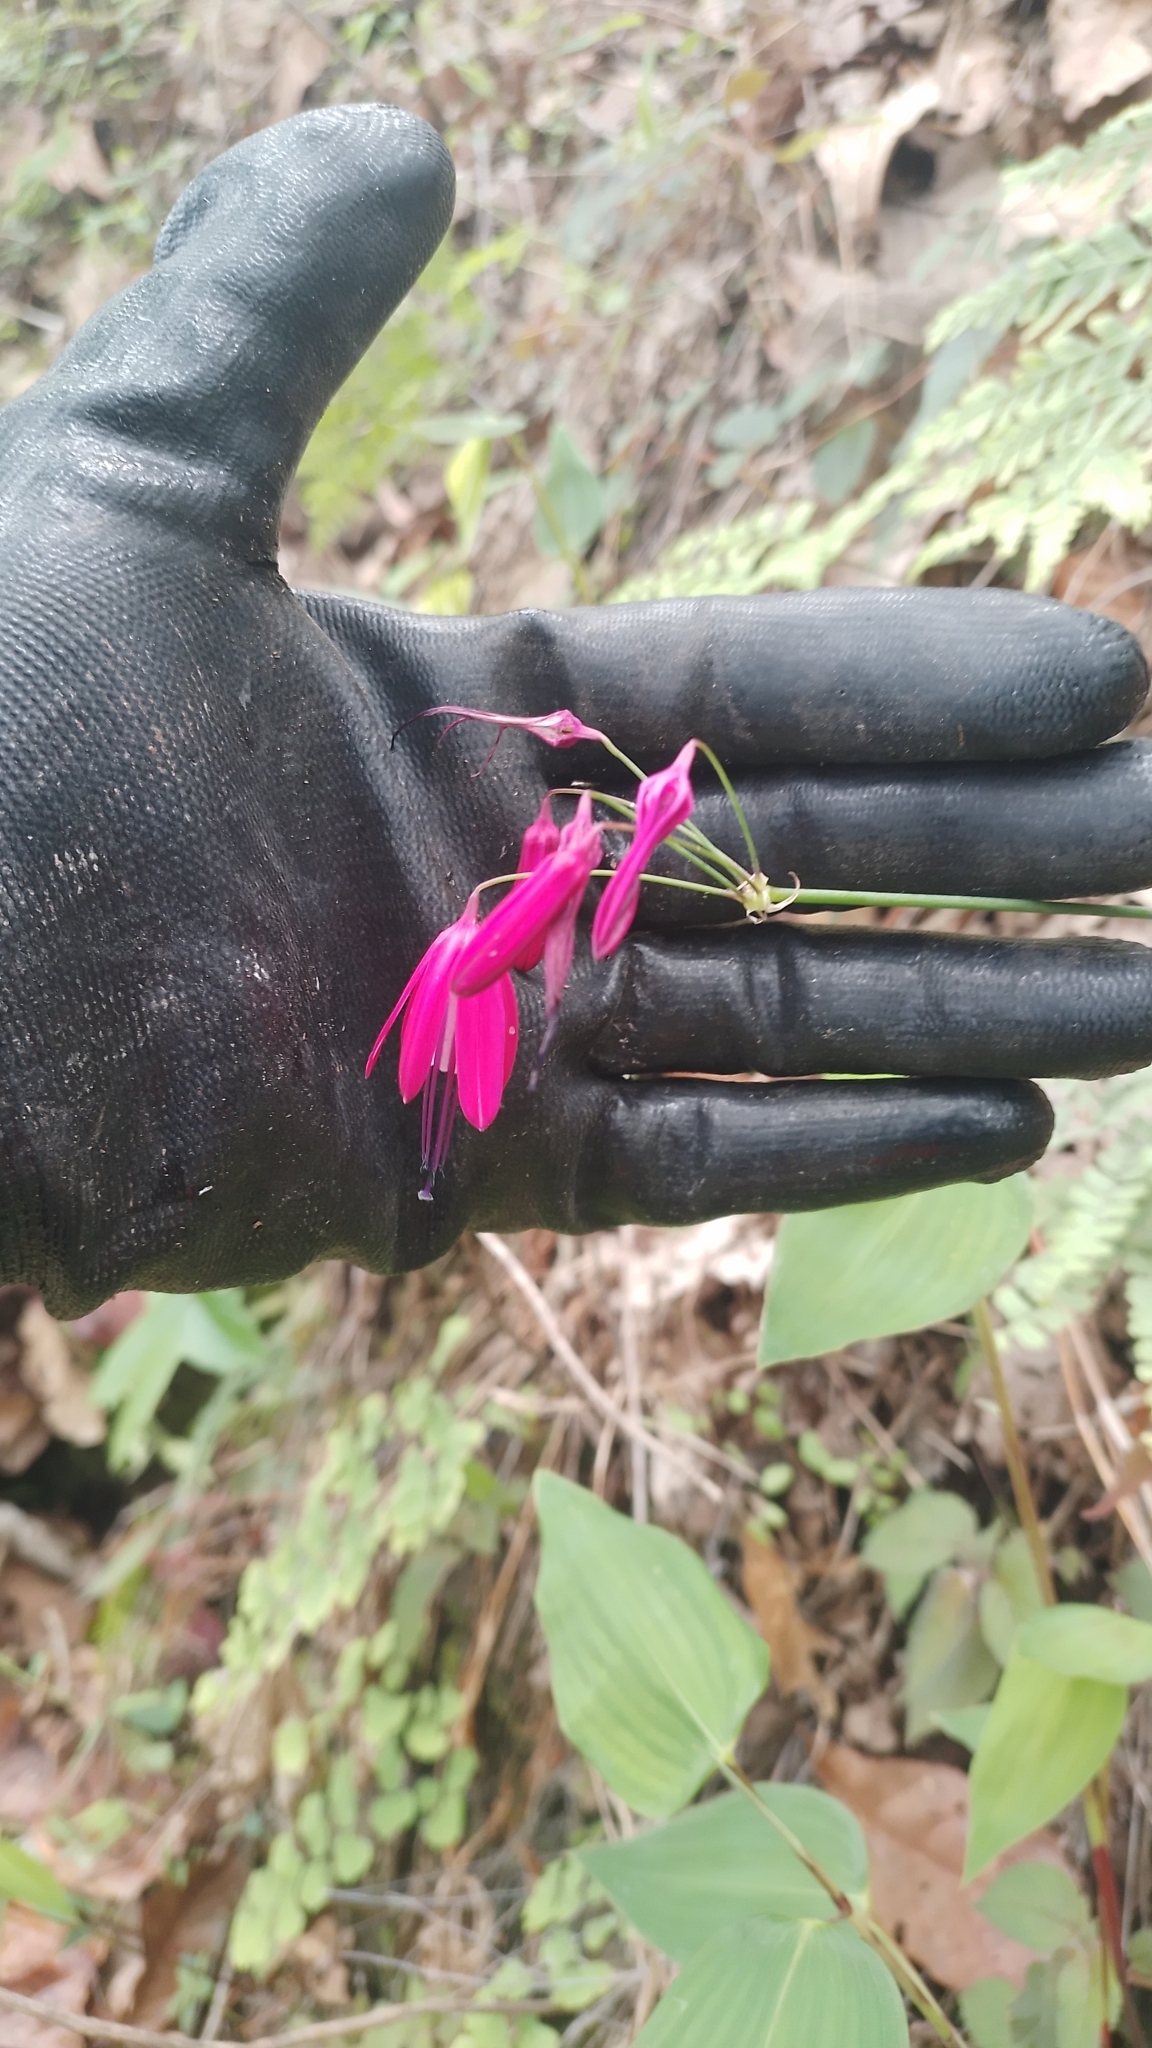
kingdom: Plantae
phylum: Tracheophyta
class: Liliopsida
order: Asparagales
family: Amaryllidaceae
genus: Bessera
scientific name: Bessera elegantissima
